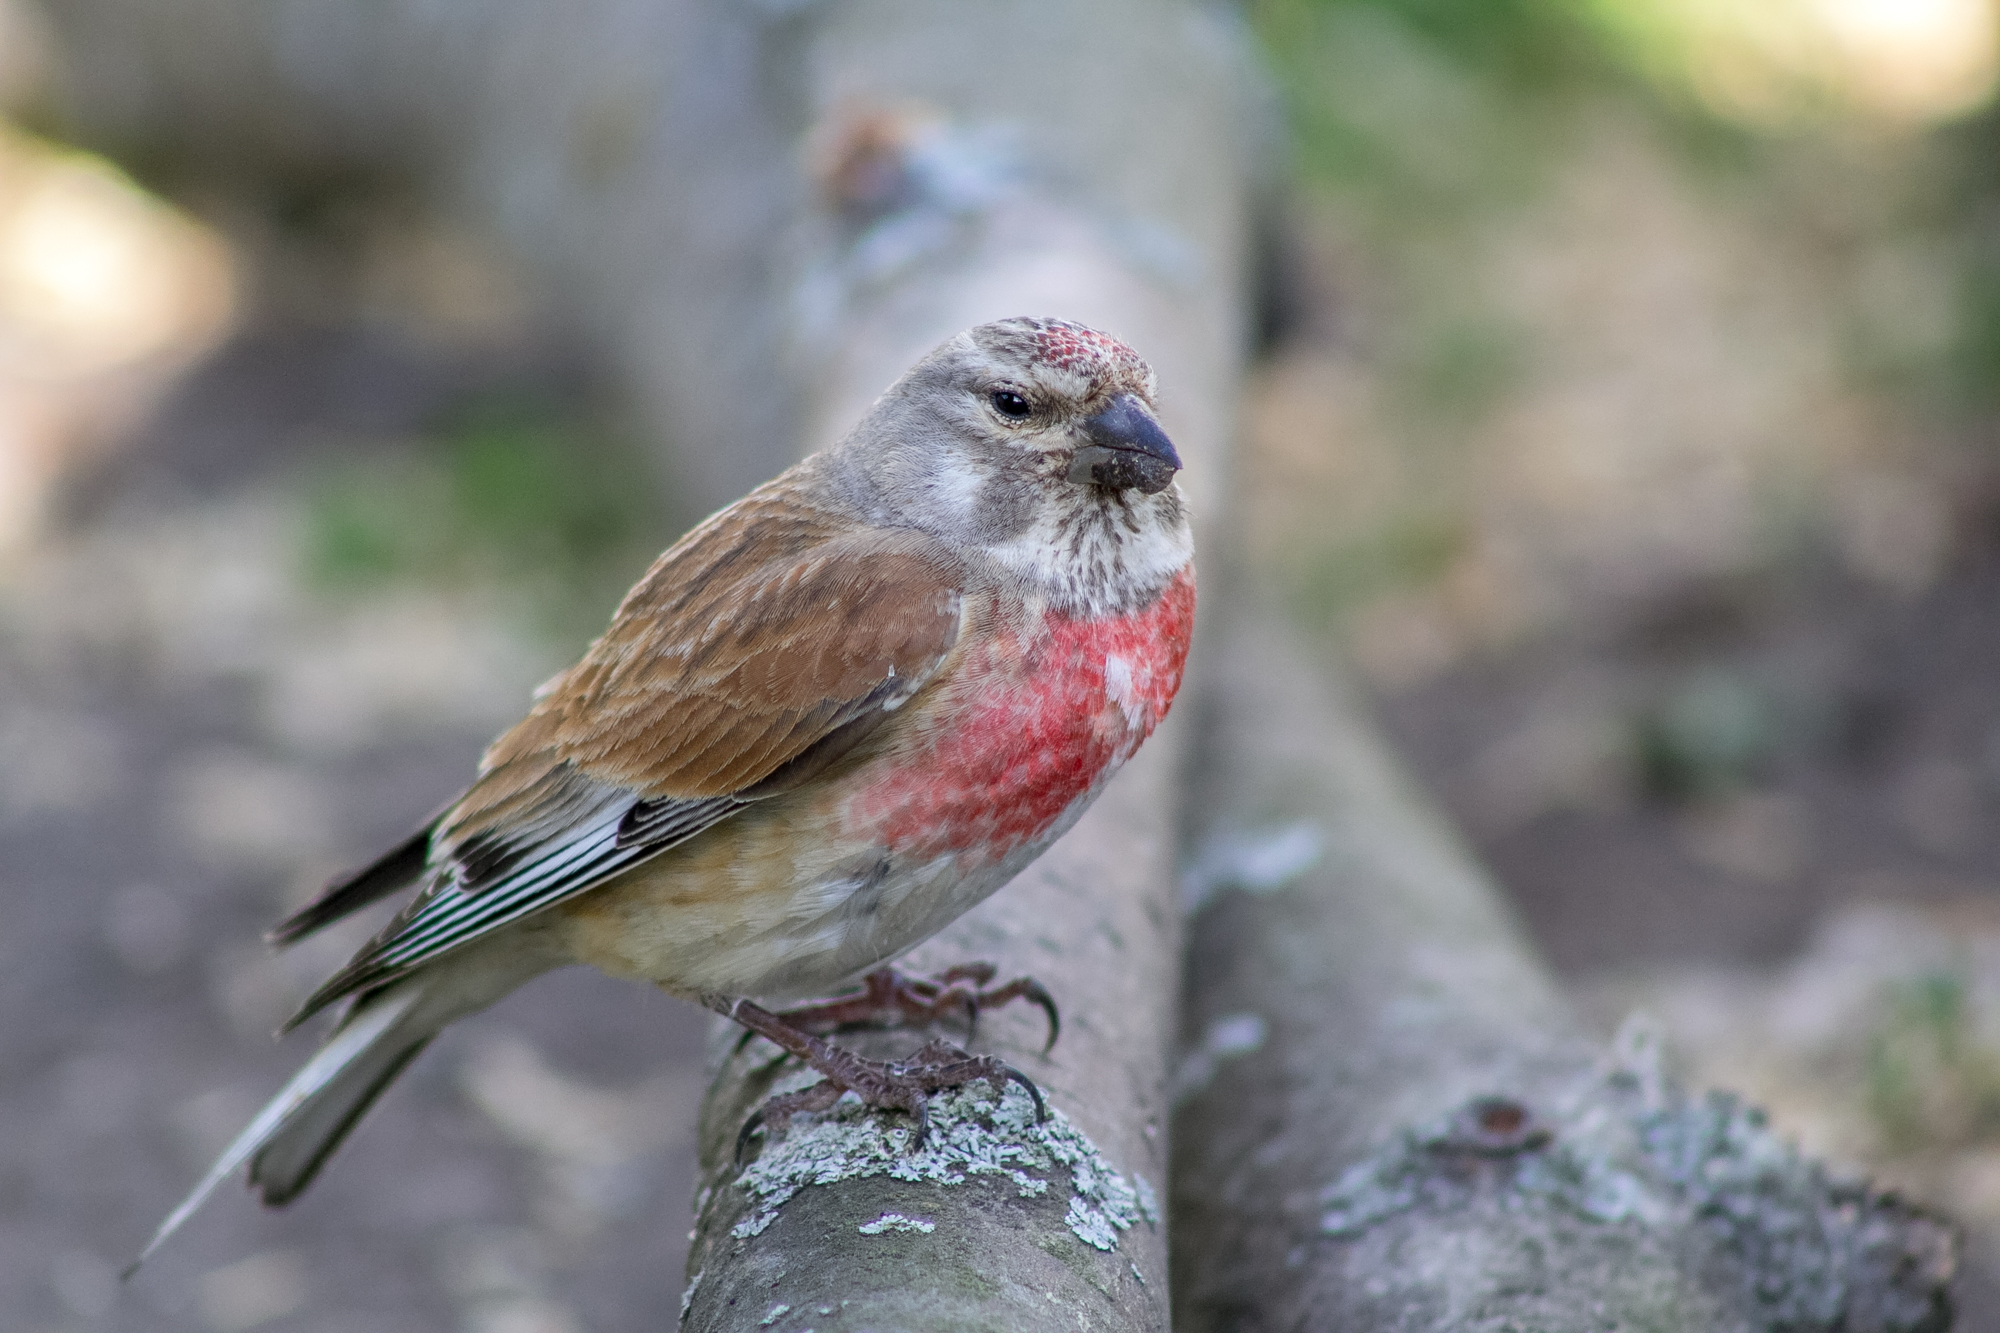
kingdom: Animalia
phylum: Chordata
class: Aves
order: Passeriformes
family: Fringillidae
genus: Linaria
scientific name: Linaria cannabina
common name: Common linnet
